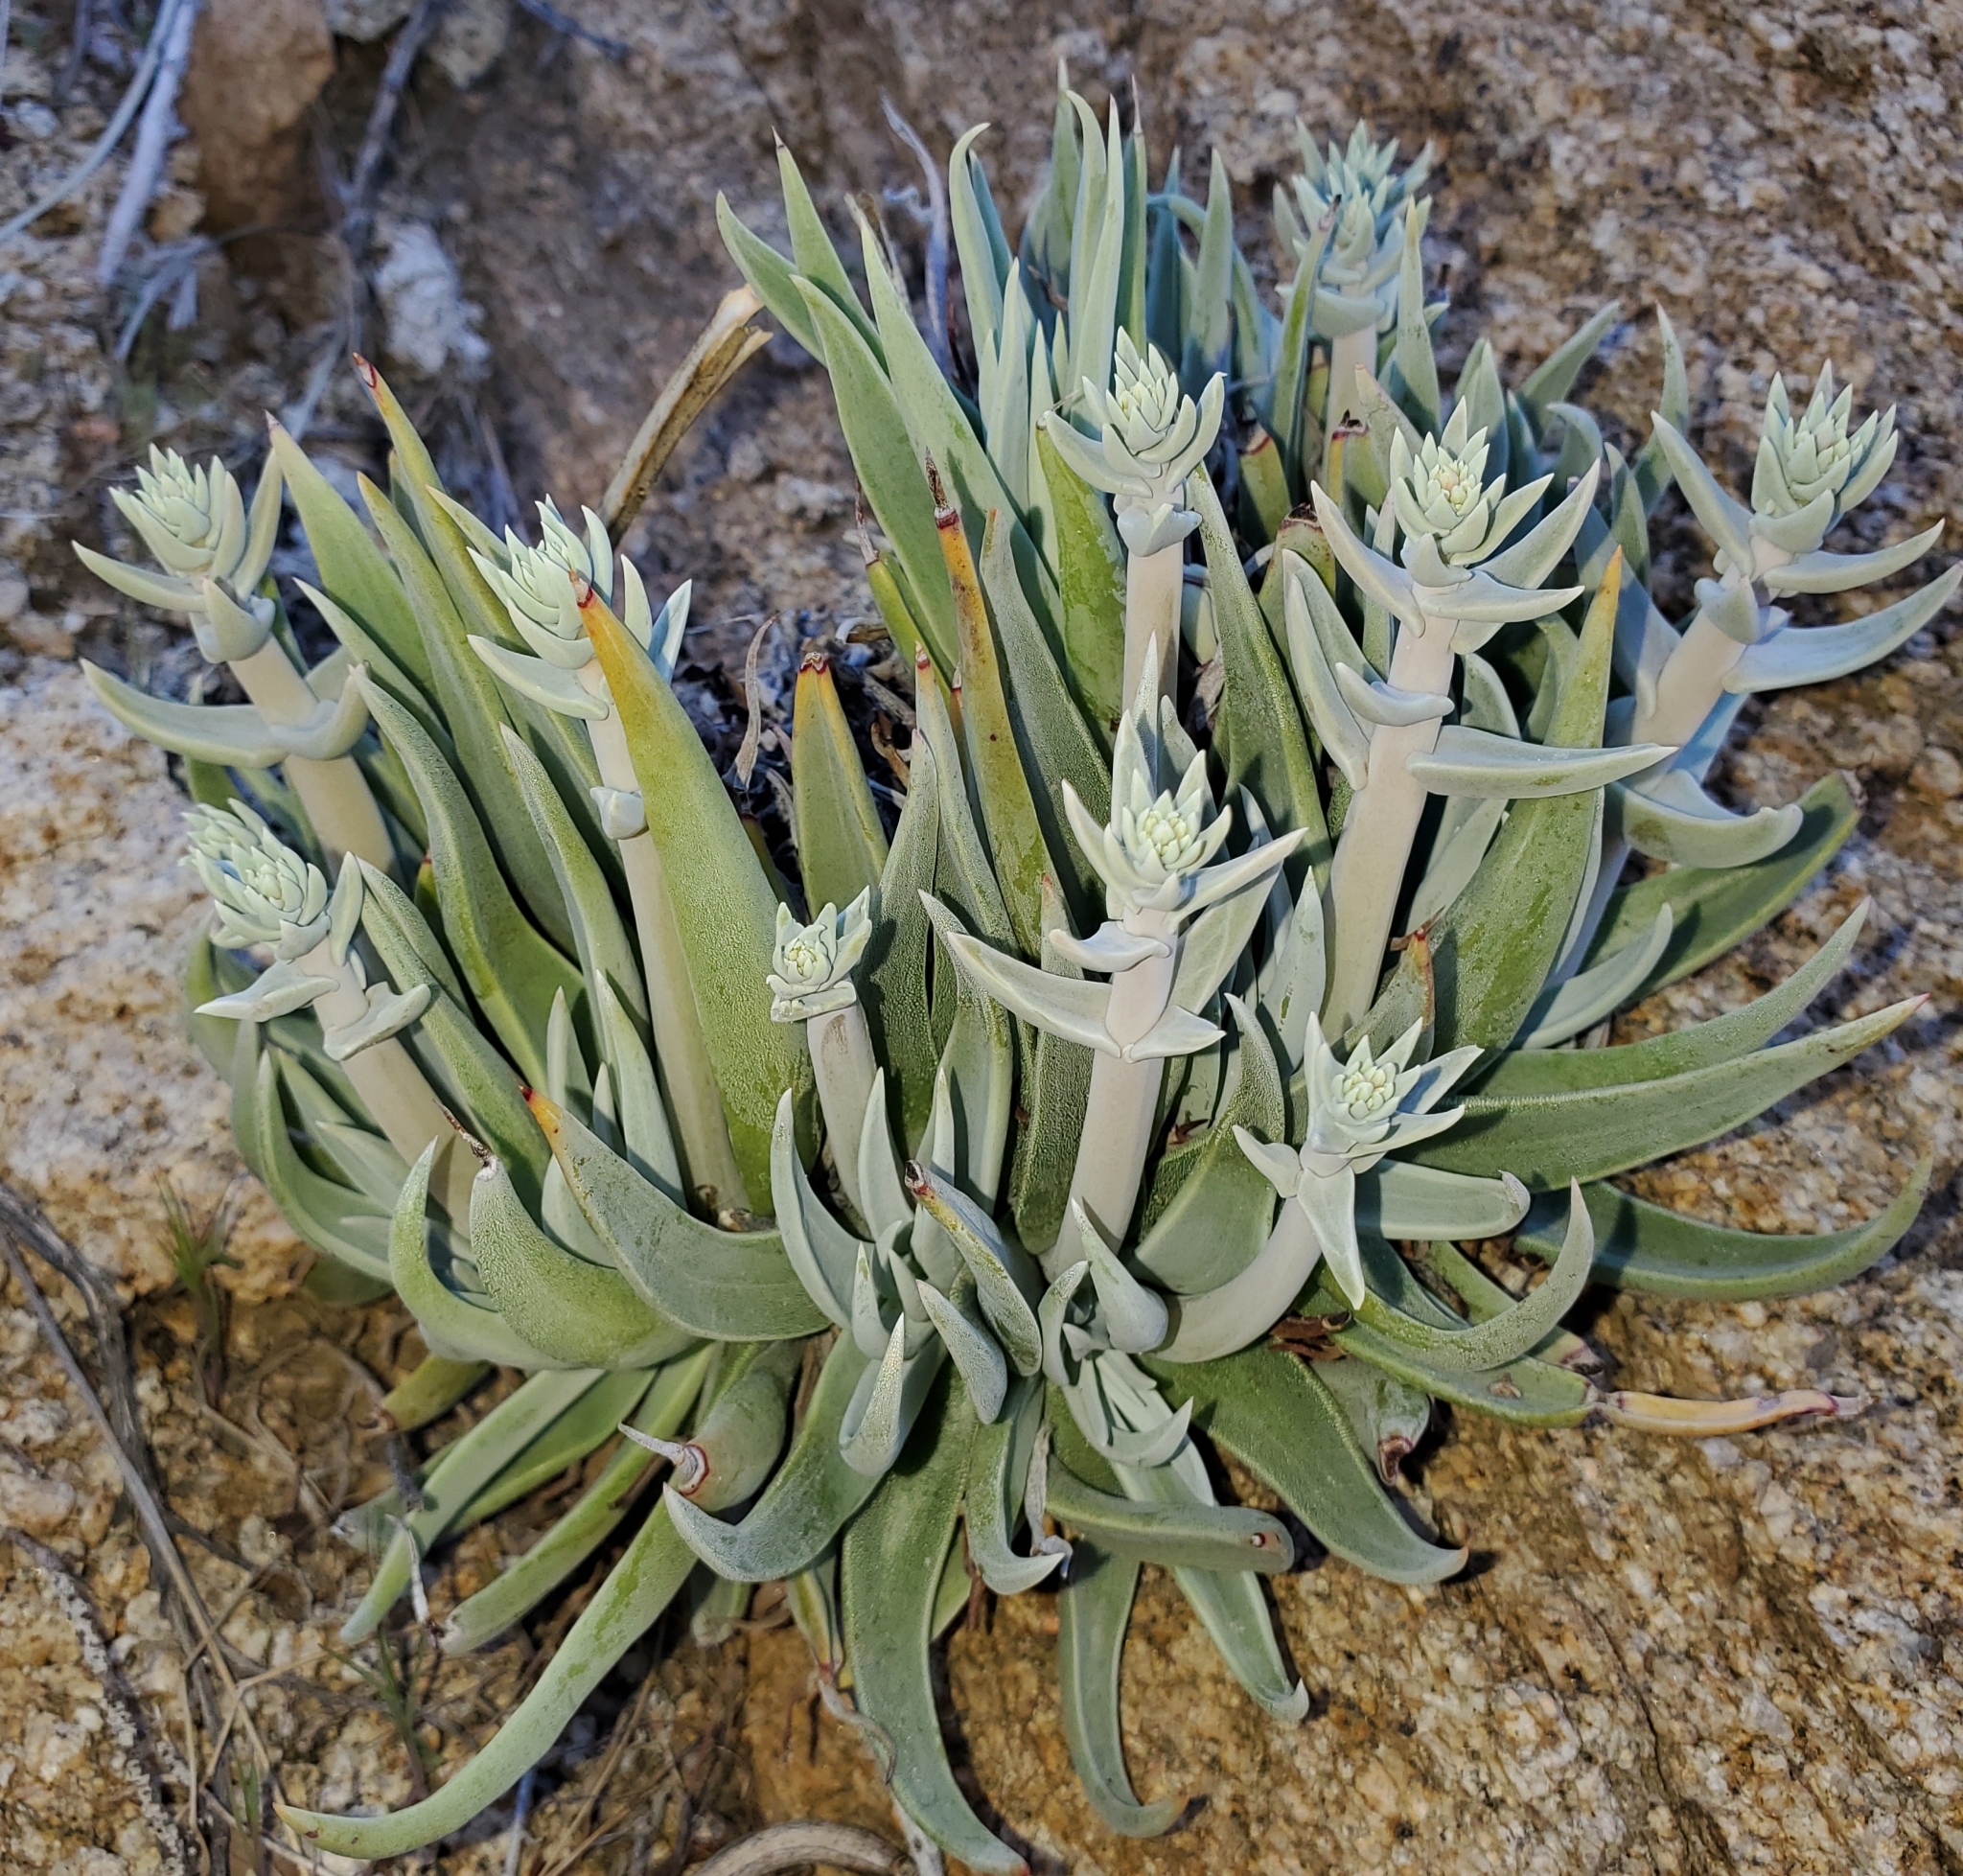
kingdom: Plantae
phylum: Tracheophyta
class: Magnoliopsida
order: Saxifragales
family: Crassulaceae
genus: Dudleya
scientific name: Dudleya saxosa
